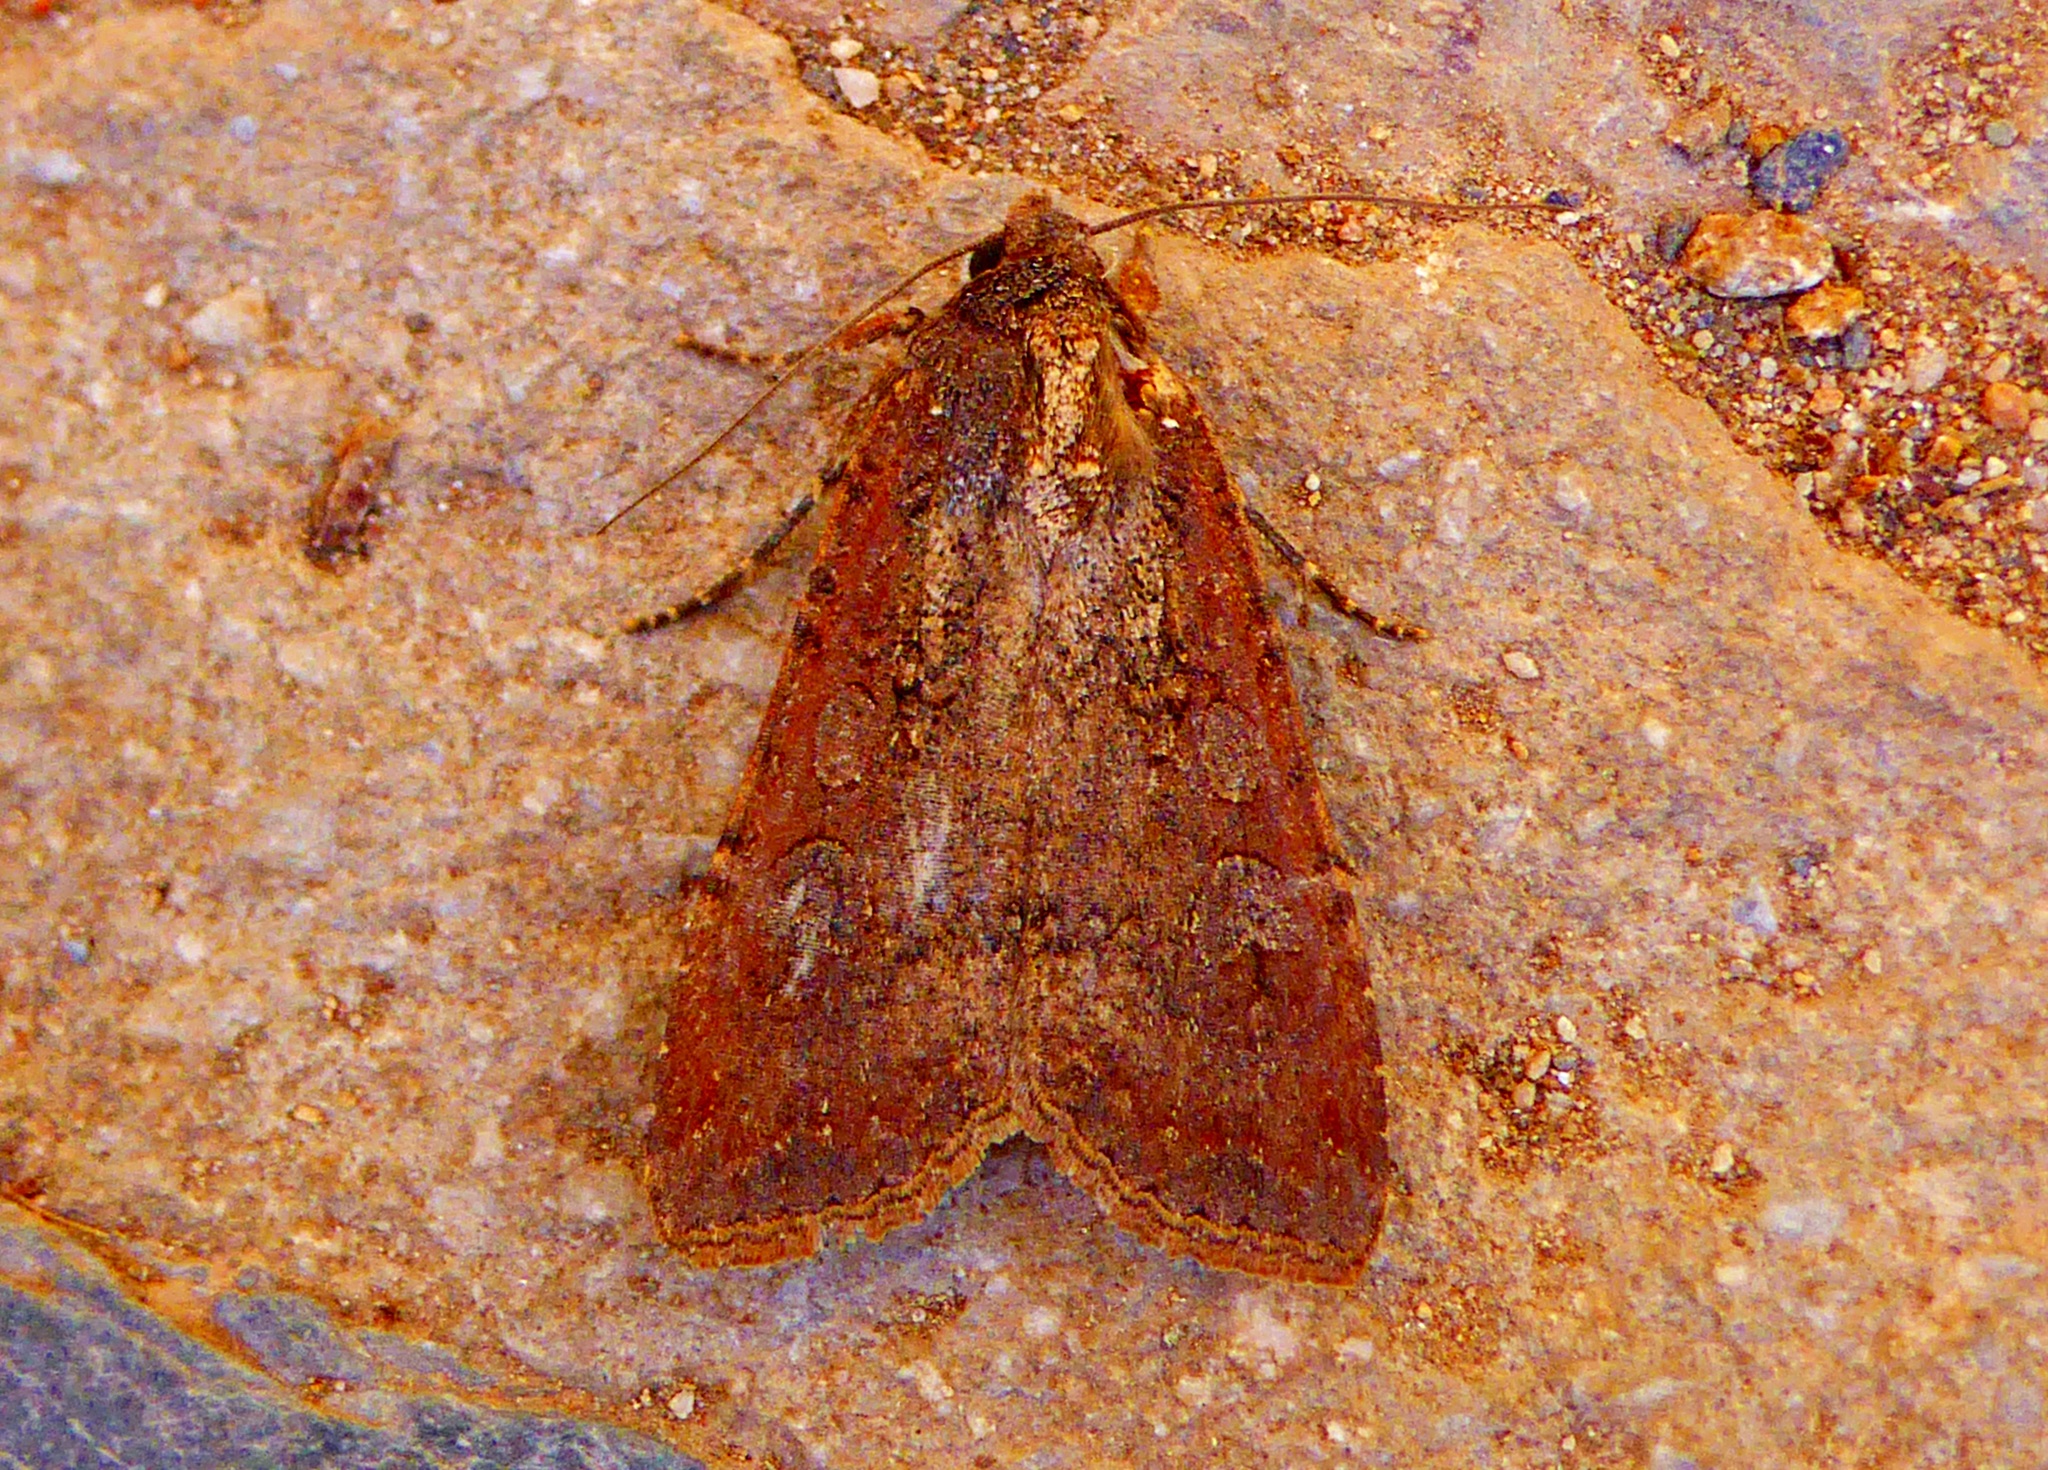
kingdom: Animalia
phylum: Arthropoda
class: Insecta
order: Lepidoptera
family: Noctuidae
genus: Peridroma
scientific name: Peridroma saucia
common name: Pearly underwing
